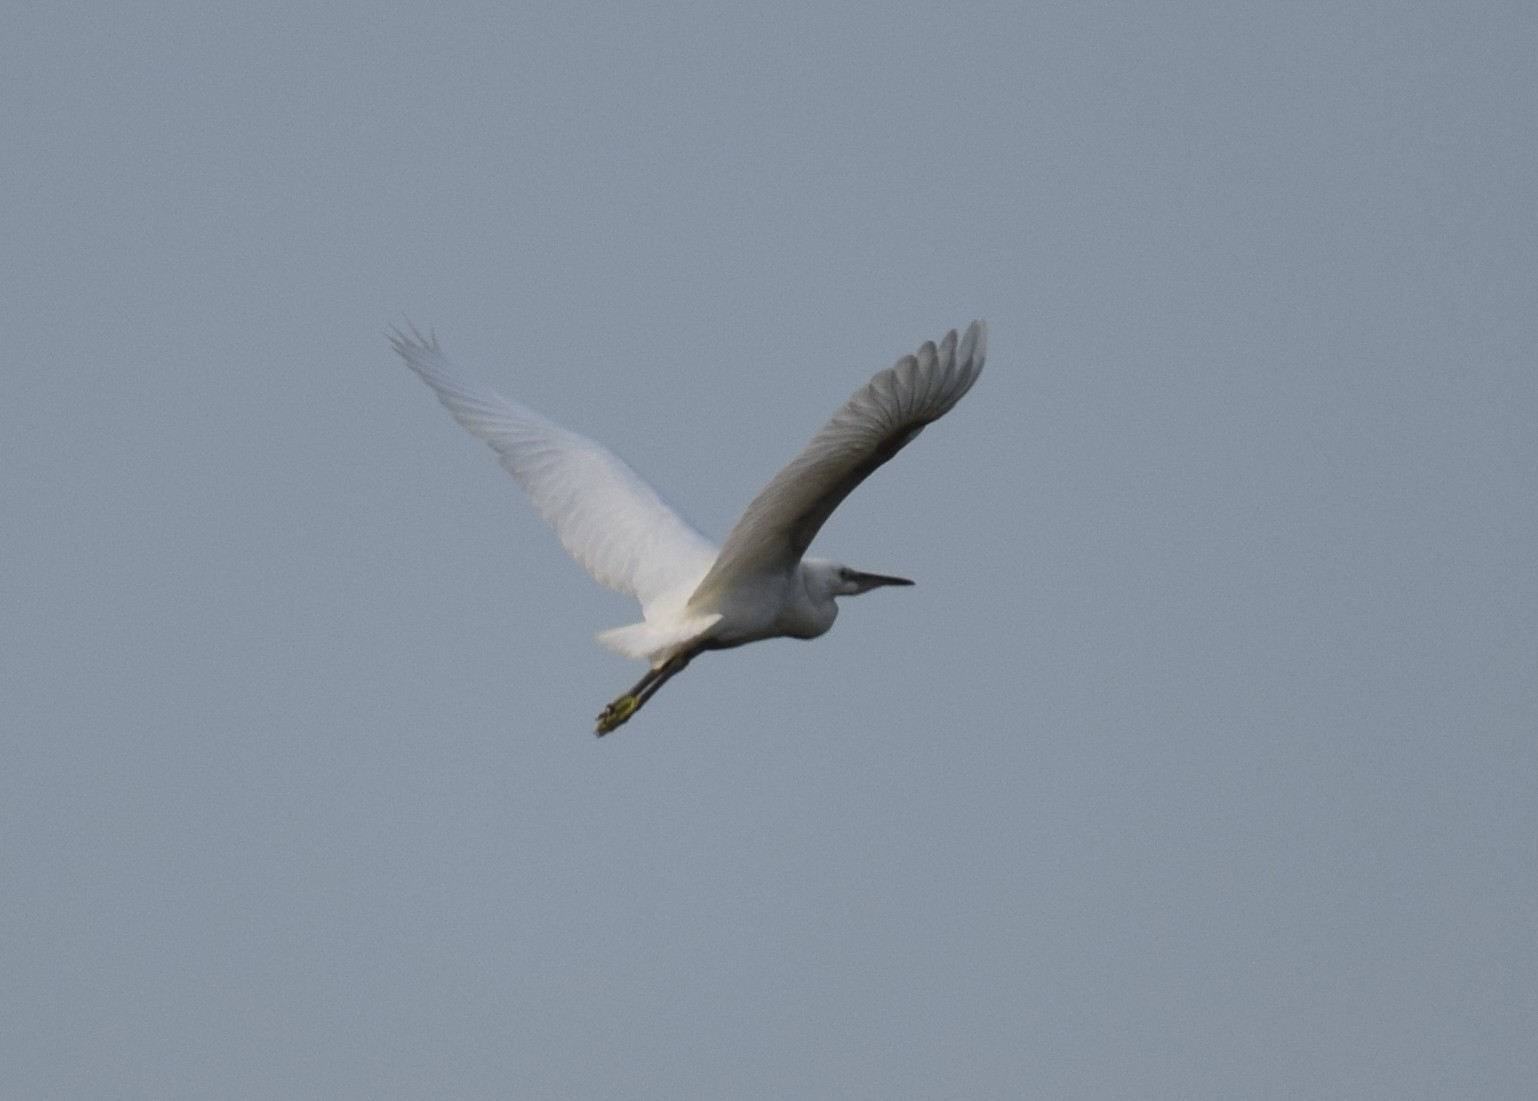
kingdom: Animalia
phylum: Chordata
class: Aves
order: Pelecaniformes
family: Ardeidae
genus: Ardea
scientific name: Ardea alba
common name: Great egret
